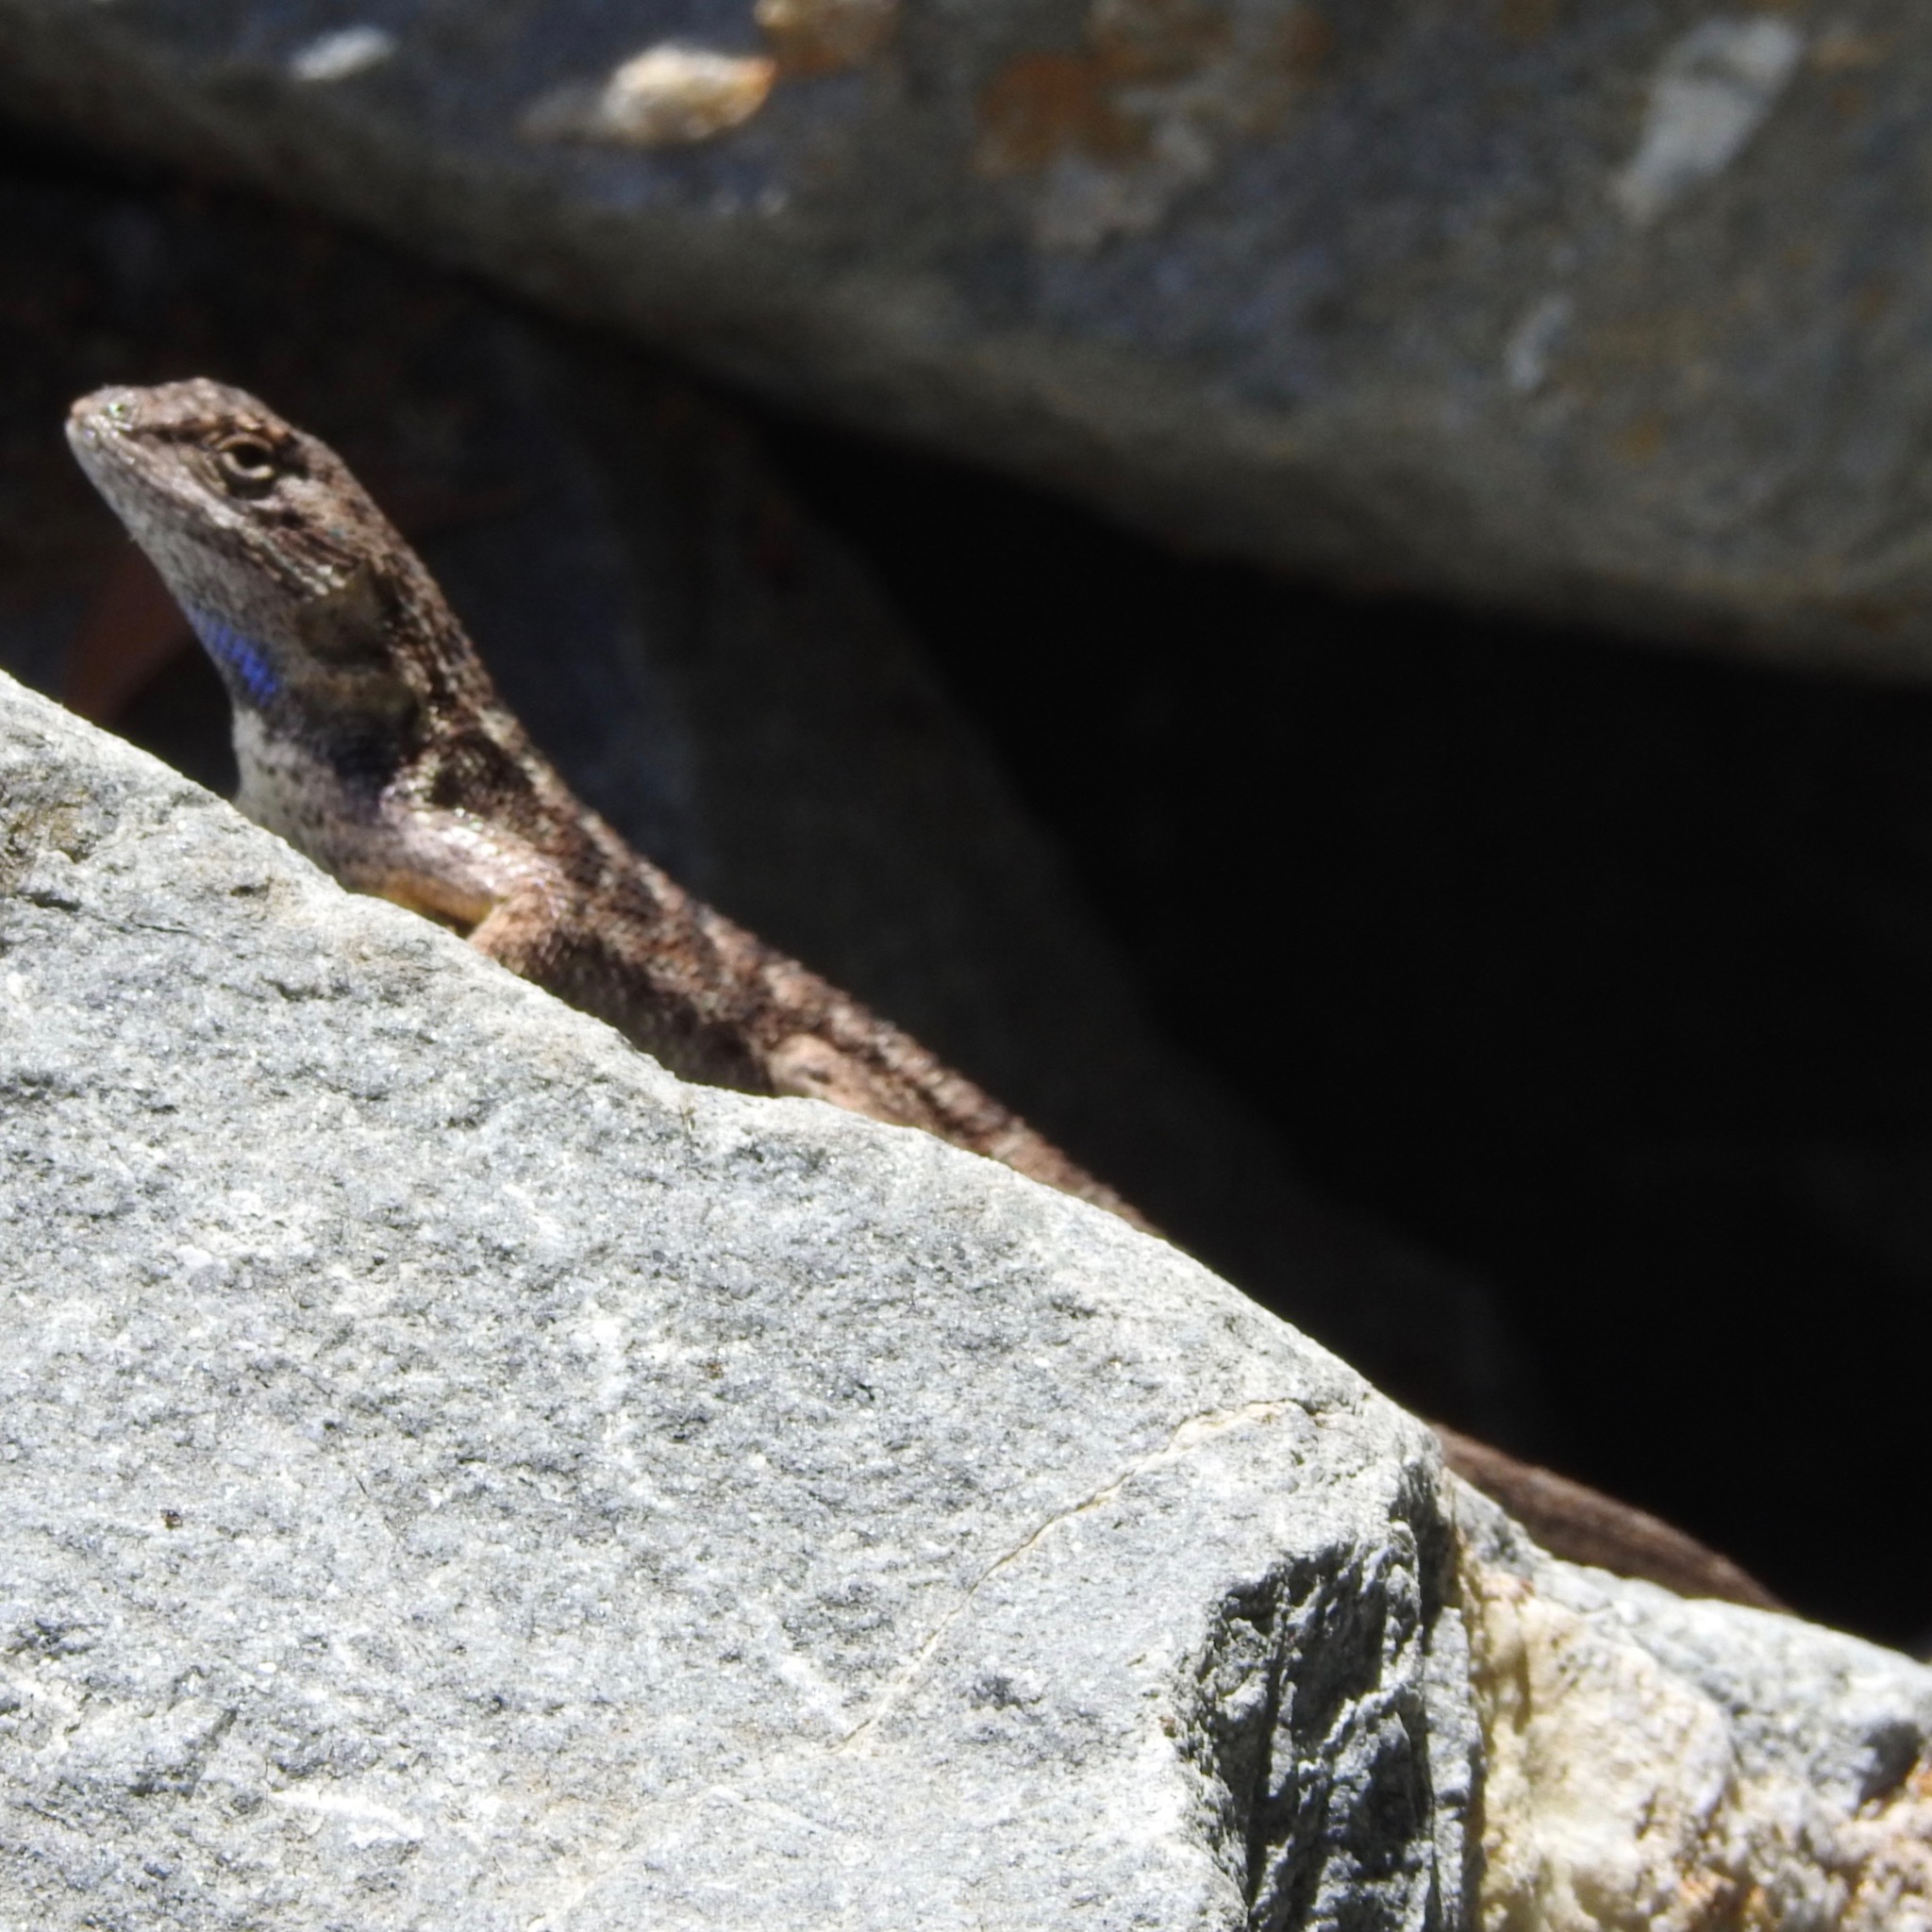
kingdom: Animalia
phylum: Chordata
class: Squamata
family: Phrynosomatidae
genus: Sceloporus
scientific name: Sceloporus occidentalis
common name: Western fence lizard
